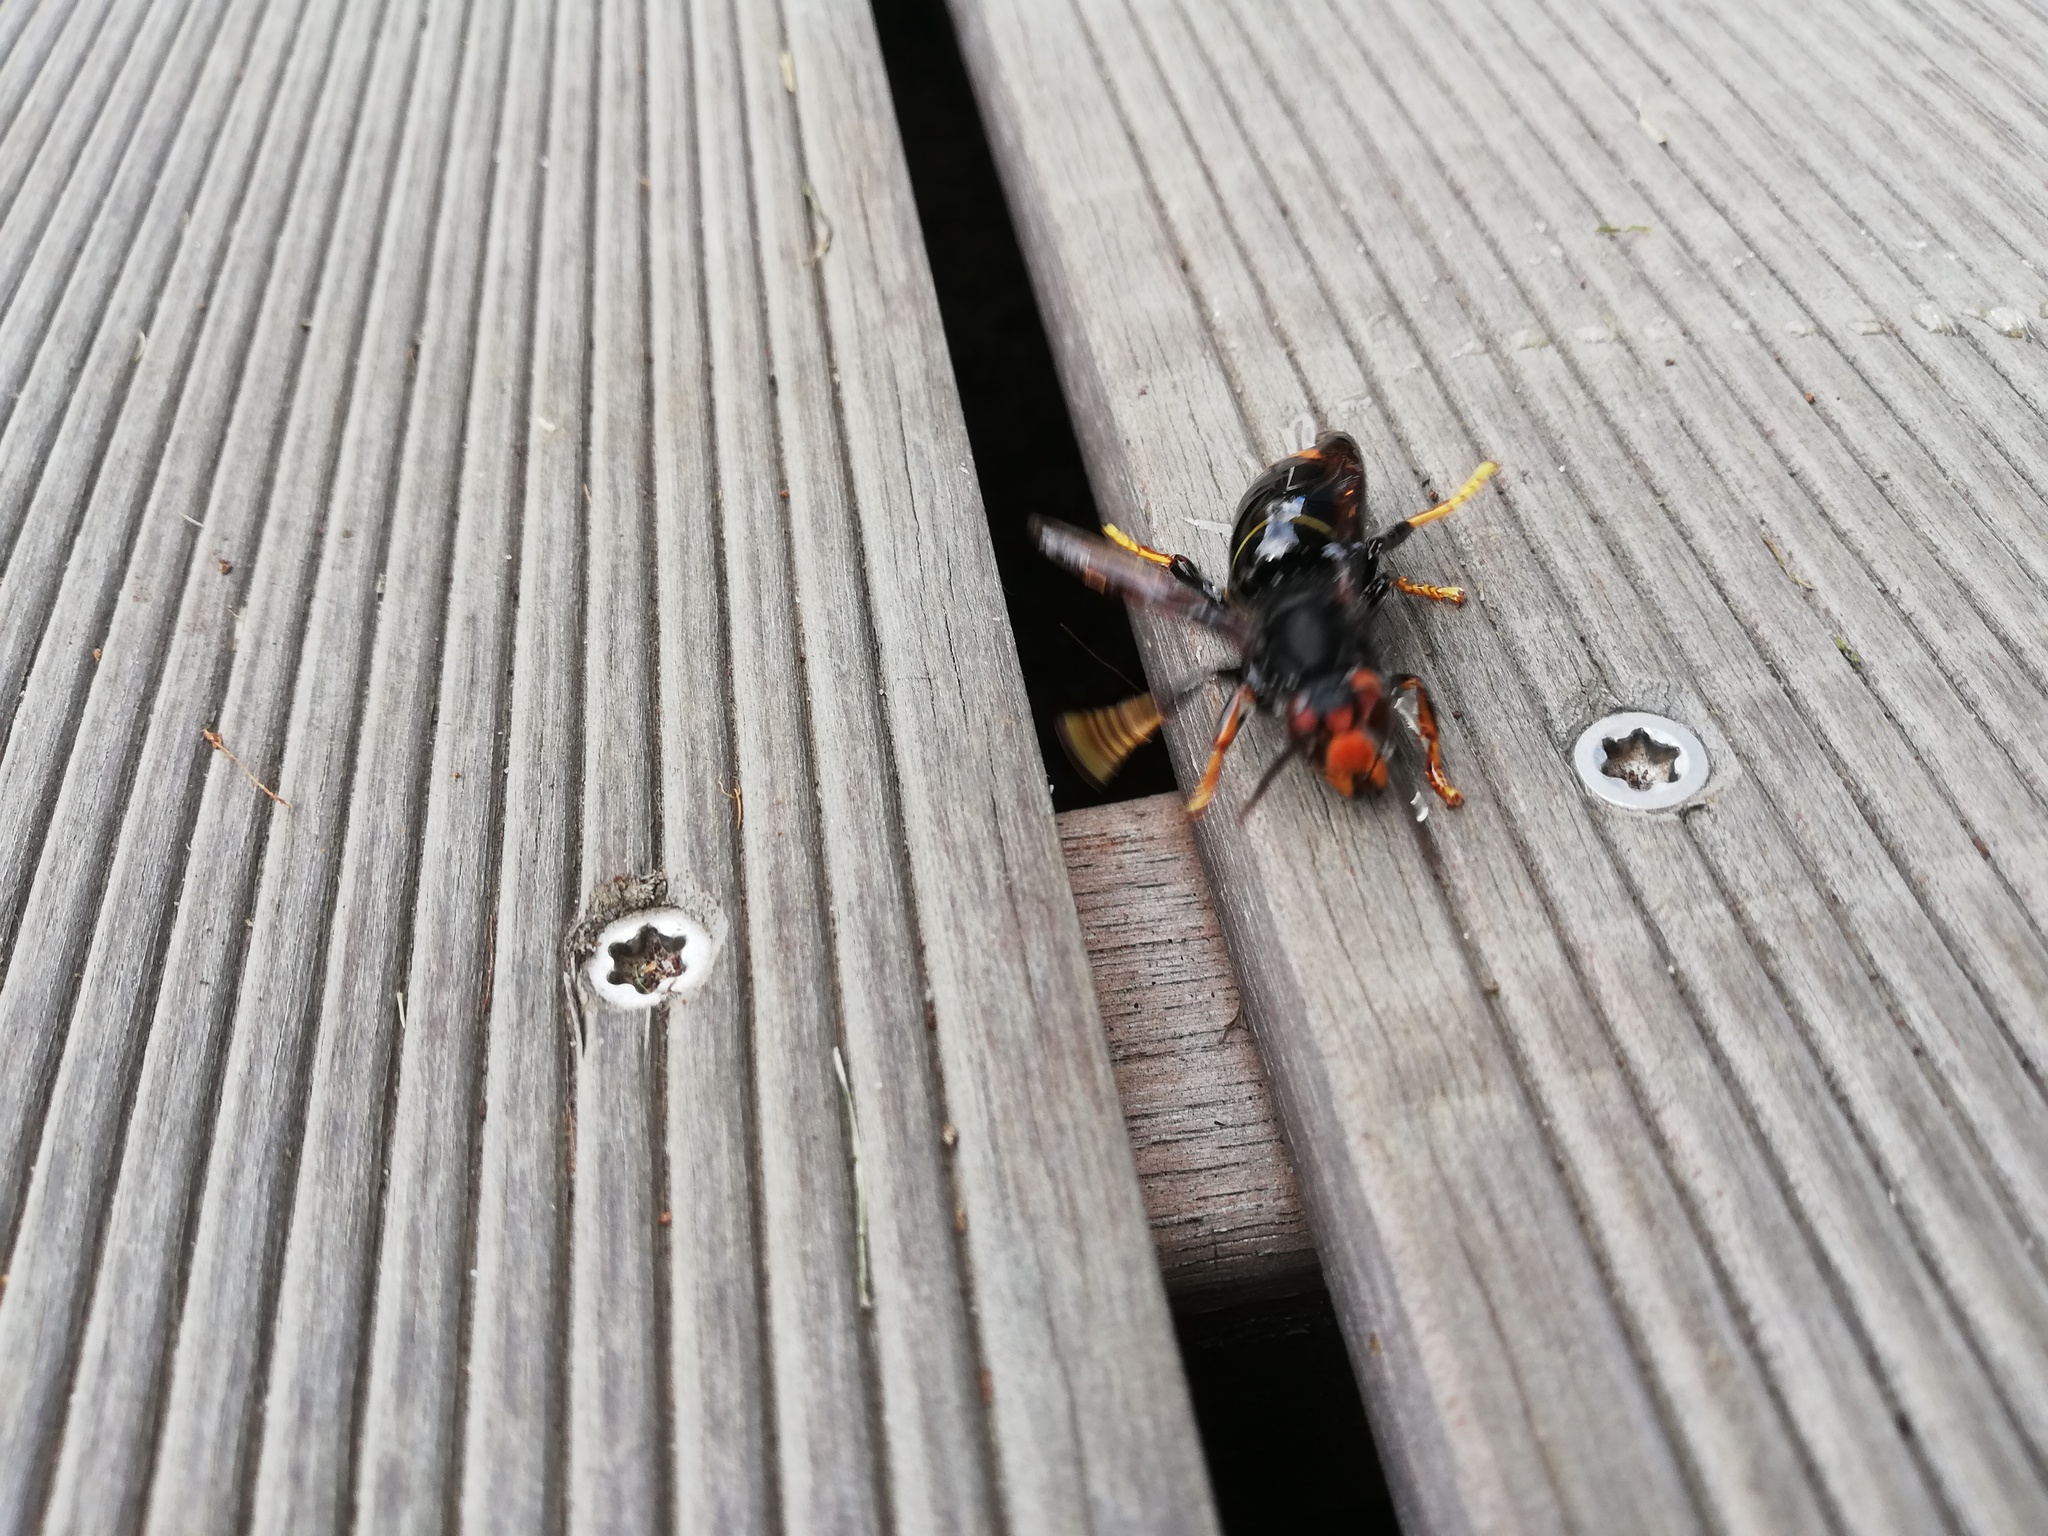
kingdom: Animalia
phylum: Arthropoda
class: Insecta
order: Hymenoptera
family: Vespidae
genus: Vespa
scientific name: Vespa velutina
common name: Asian hornet
